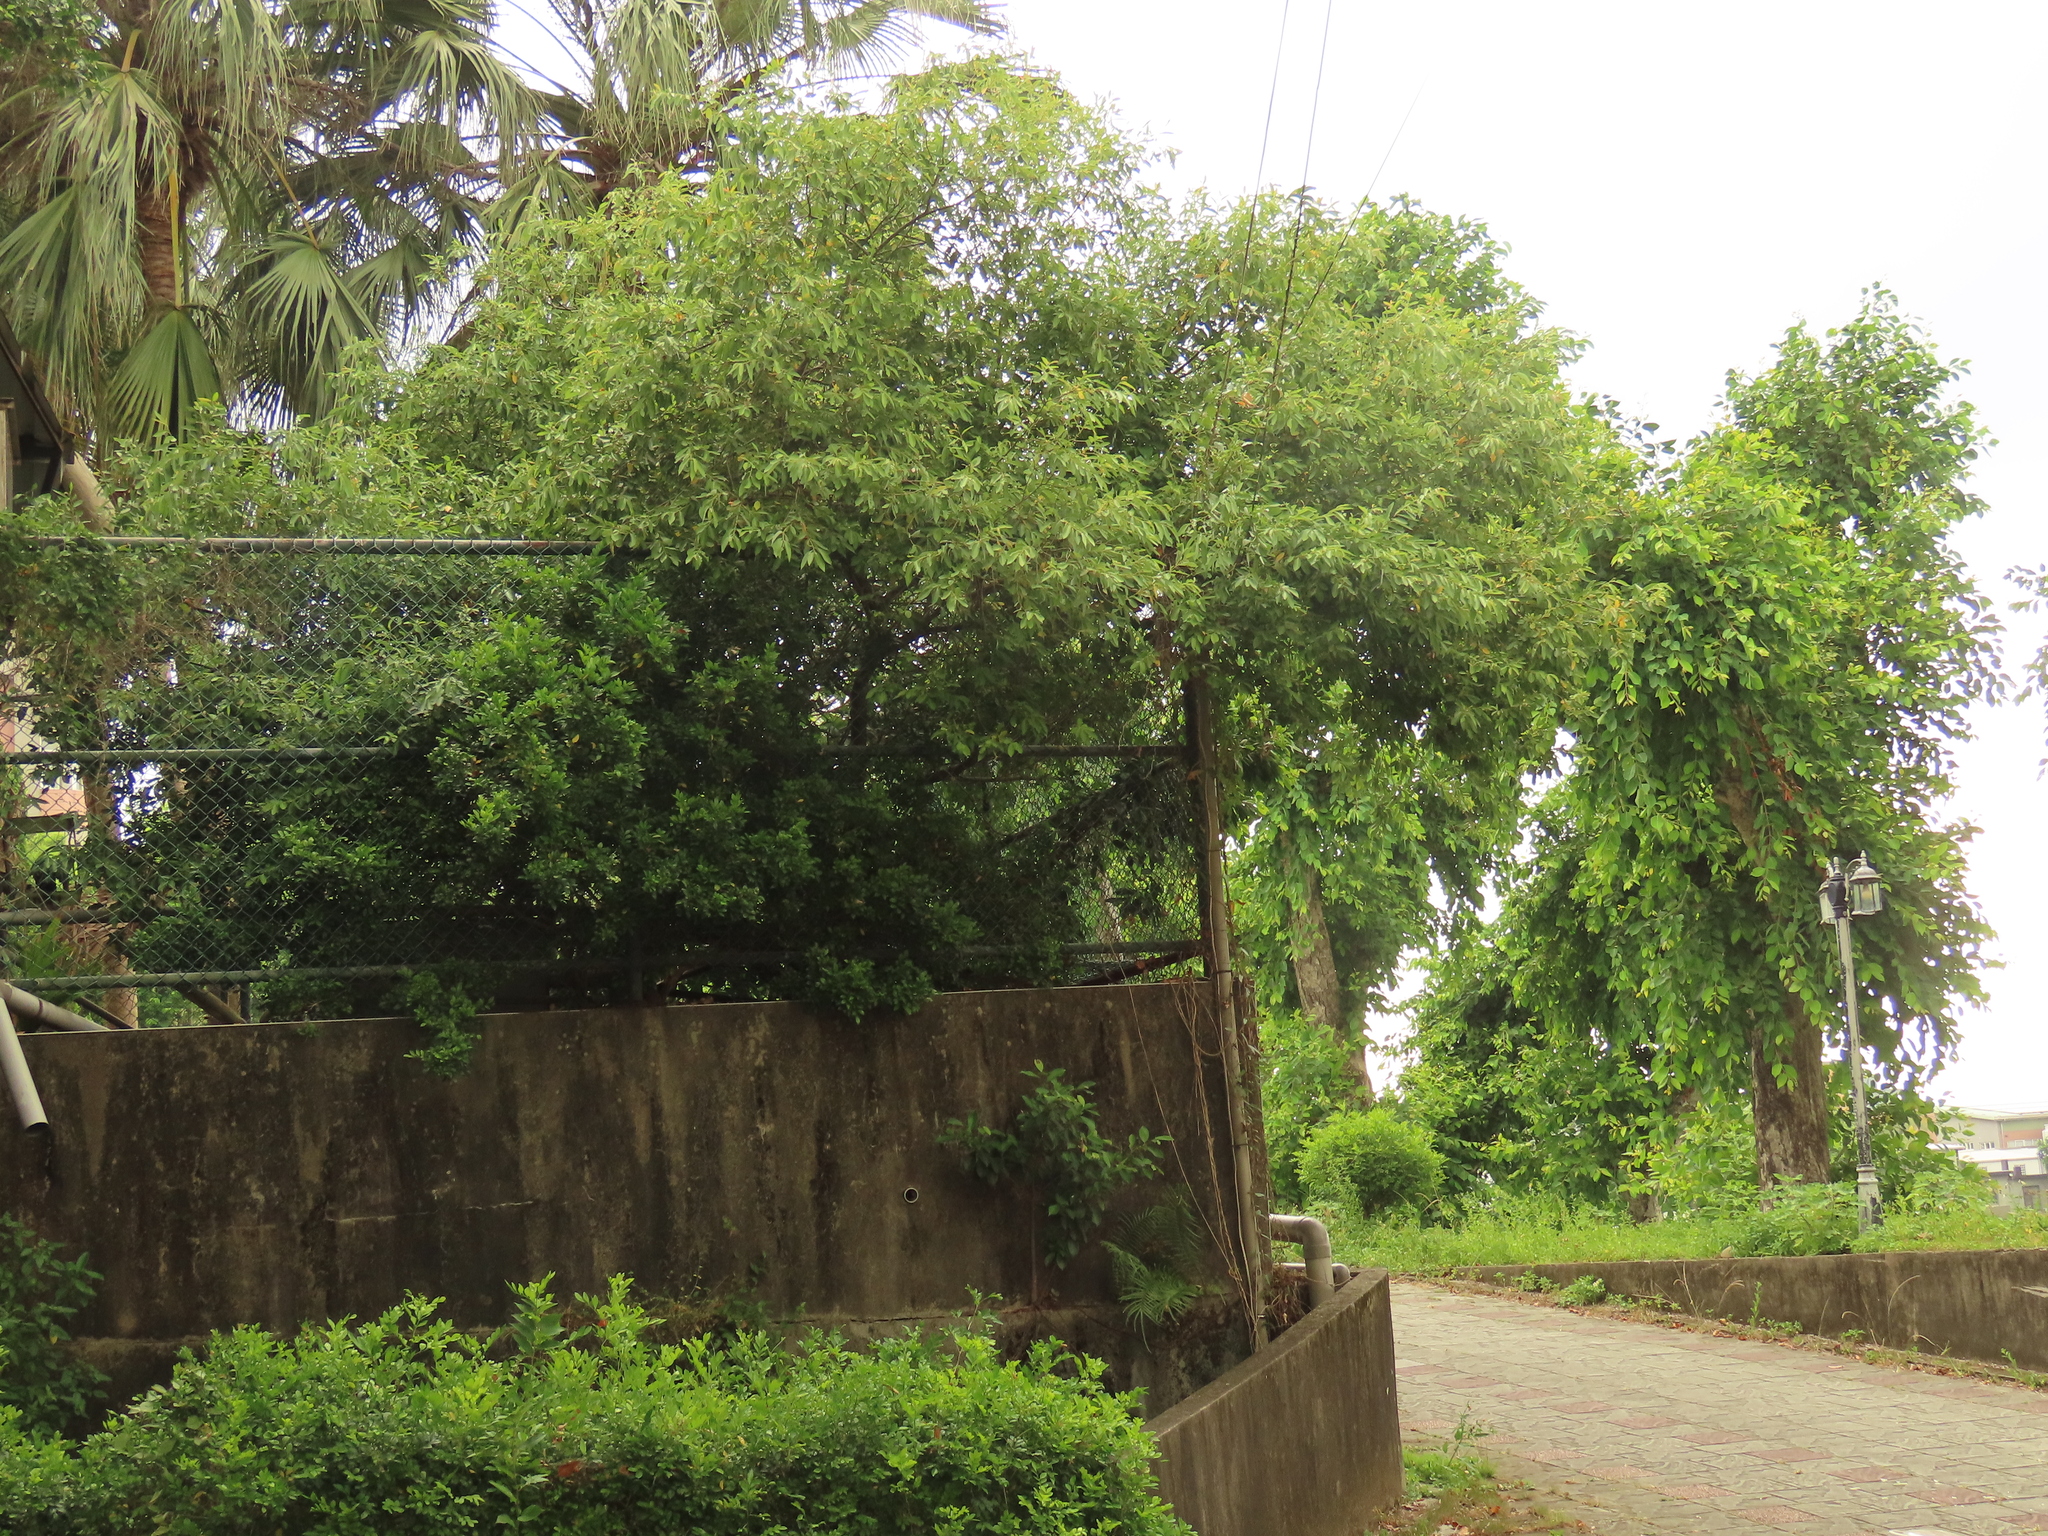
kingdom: Plantae
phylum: Tracheophyta
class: Magnoliopsida
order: Malpighiales
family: Salicaceae
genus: Salix
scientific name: Salix mesnyi
